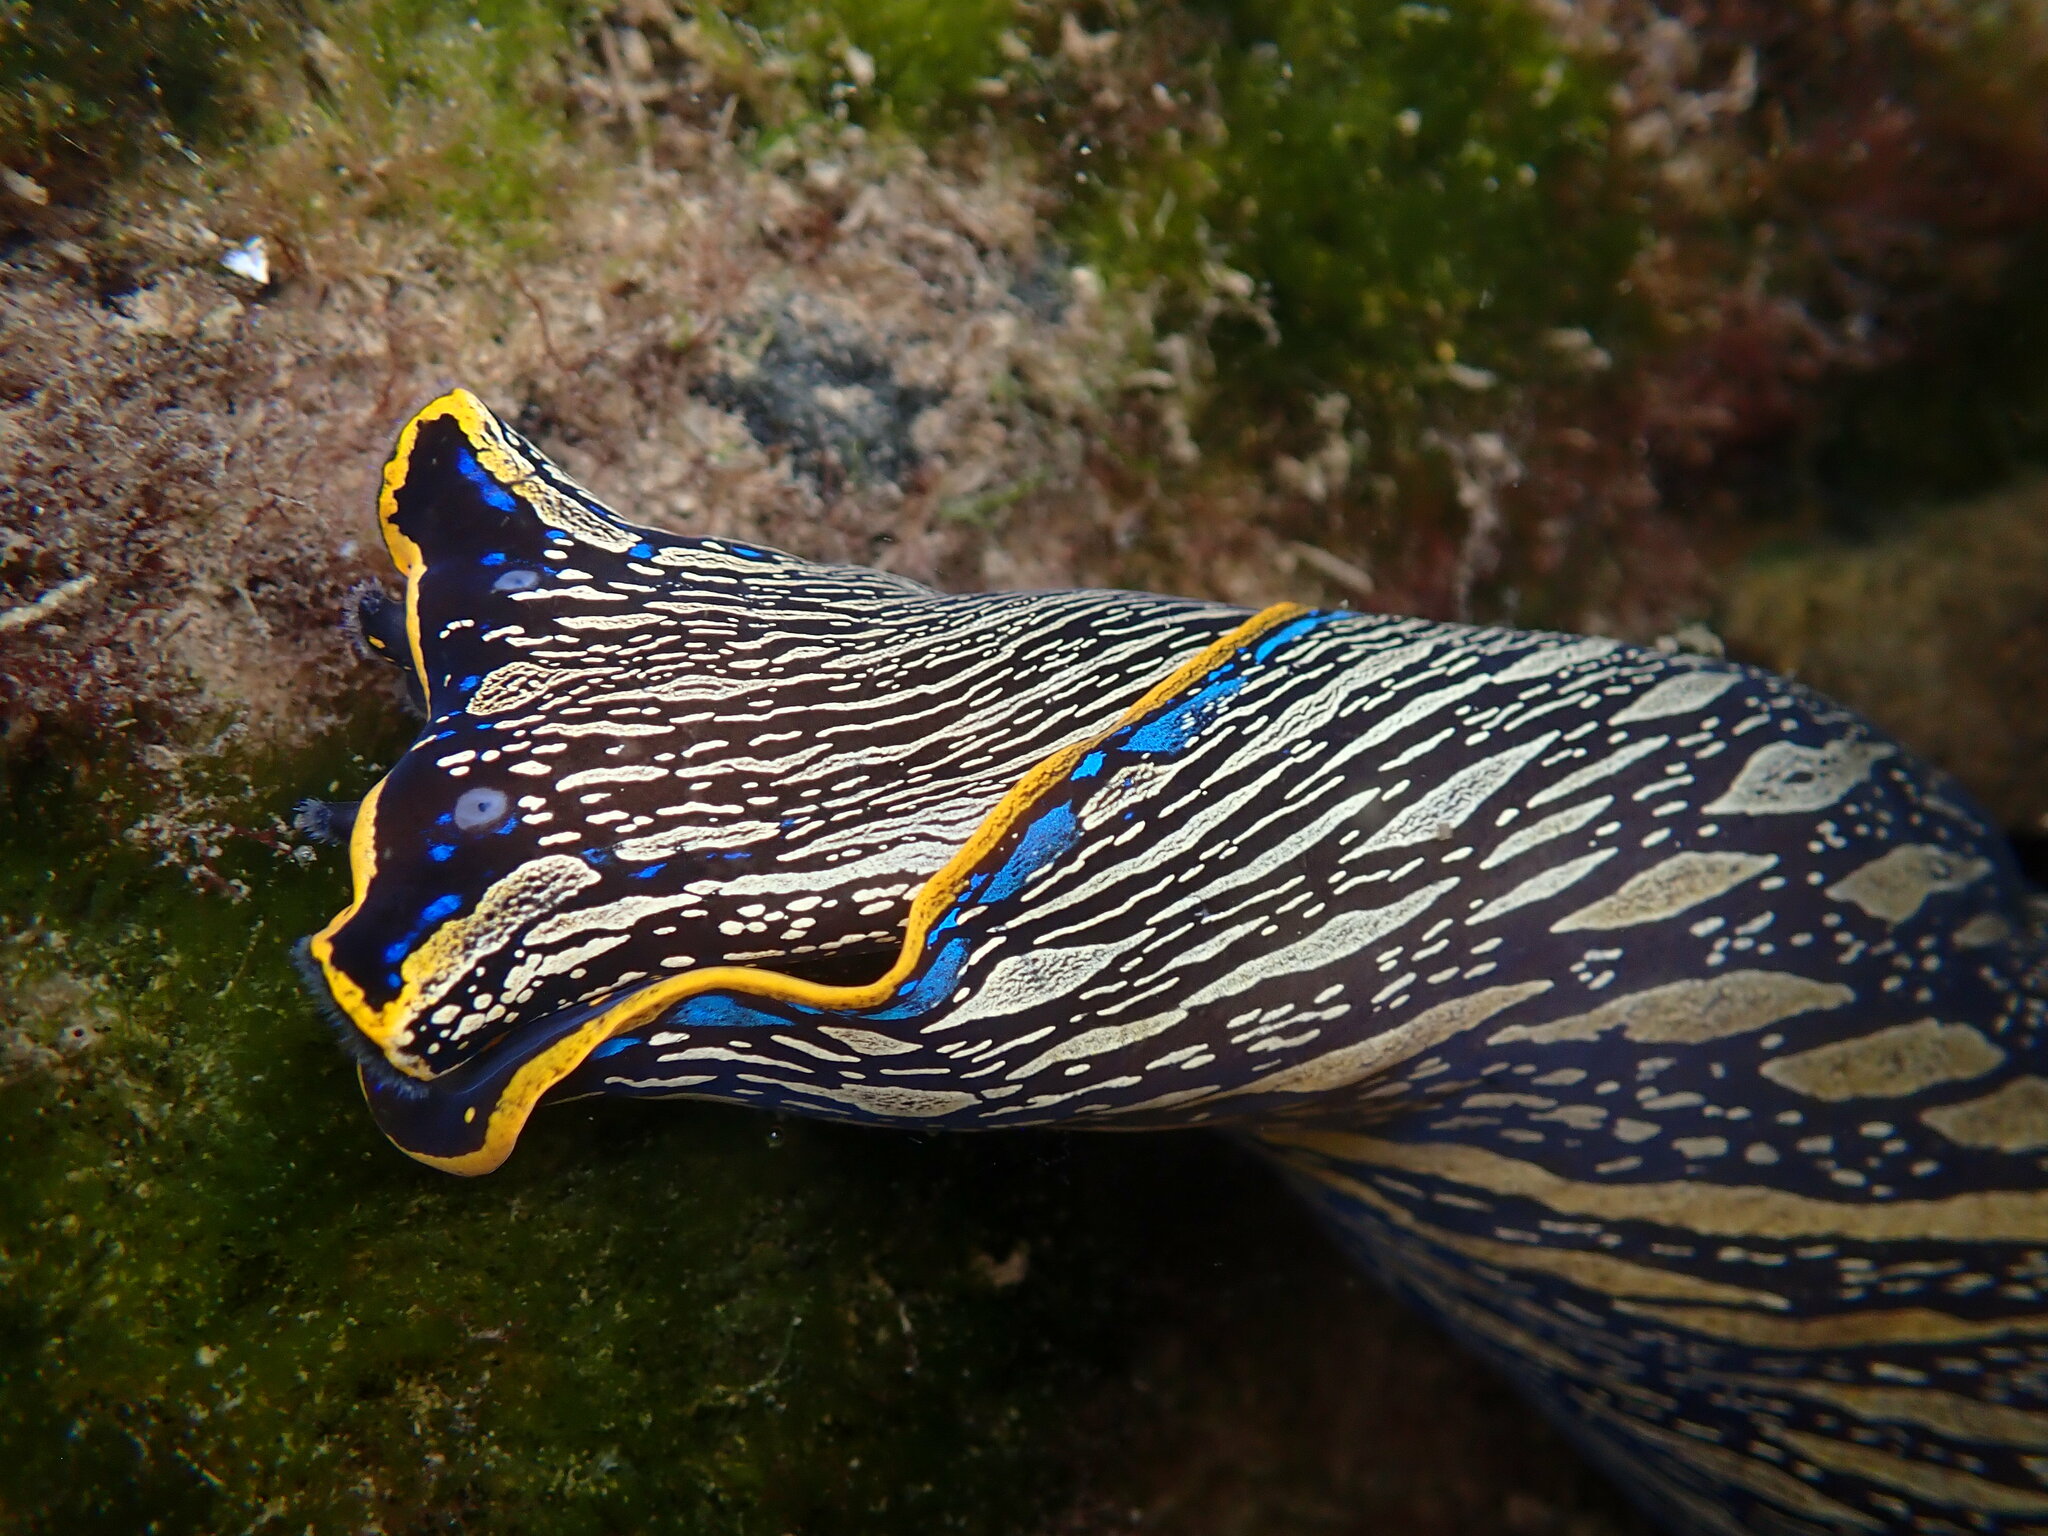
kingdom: Animalia
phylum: Mollusca
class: Gastropoda
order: Cephalaspidea
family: Aglajidae
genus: Navanax
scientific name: Navanax inermis
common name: California aglaja
